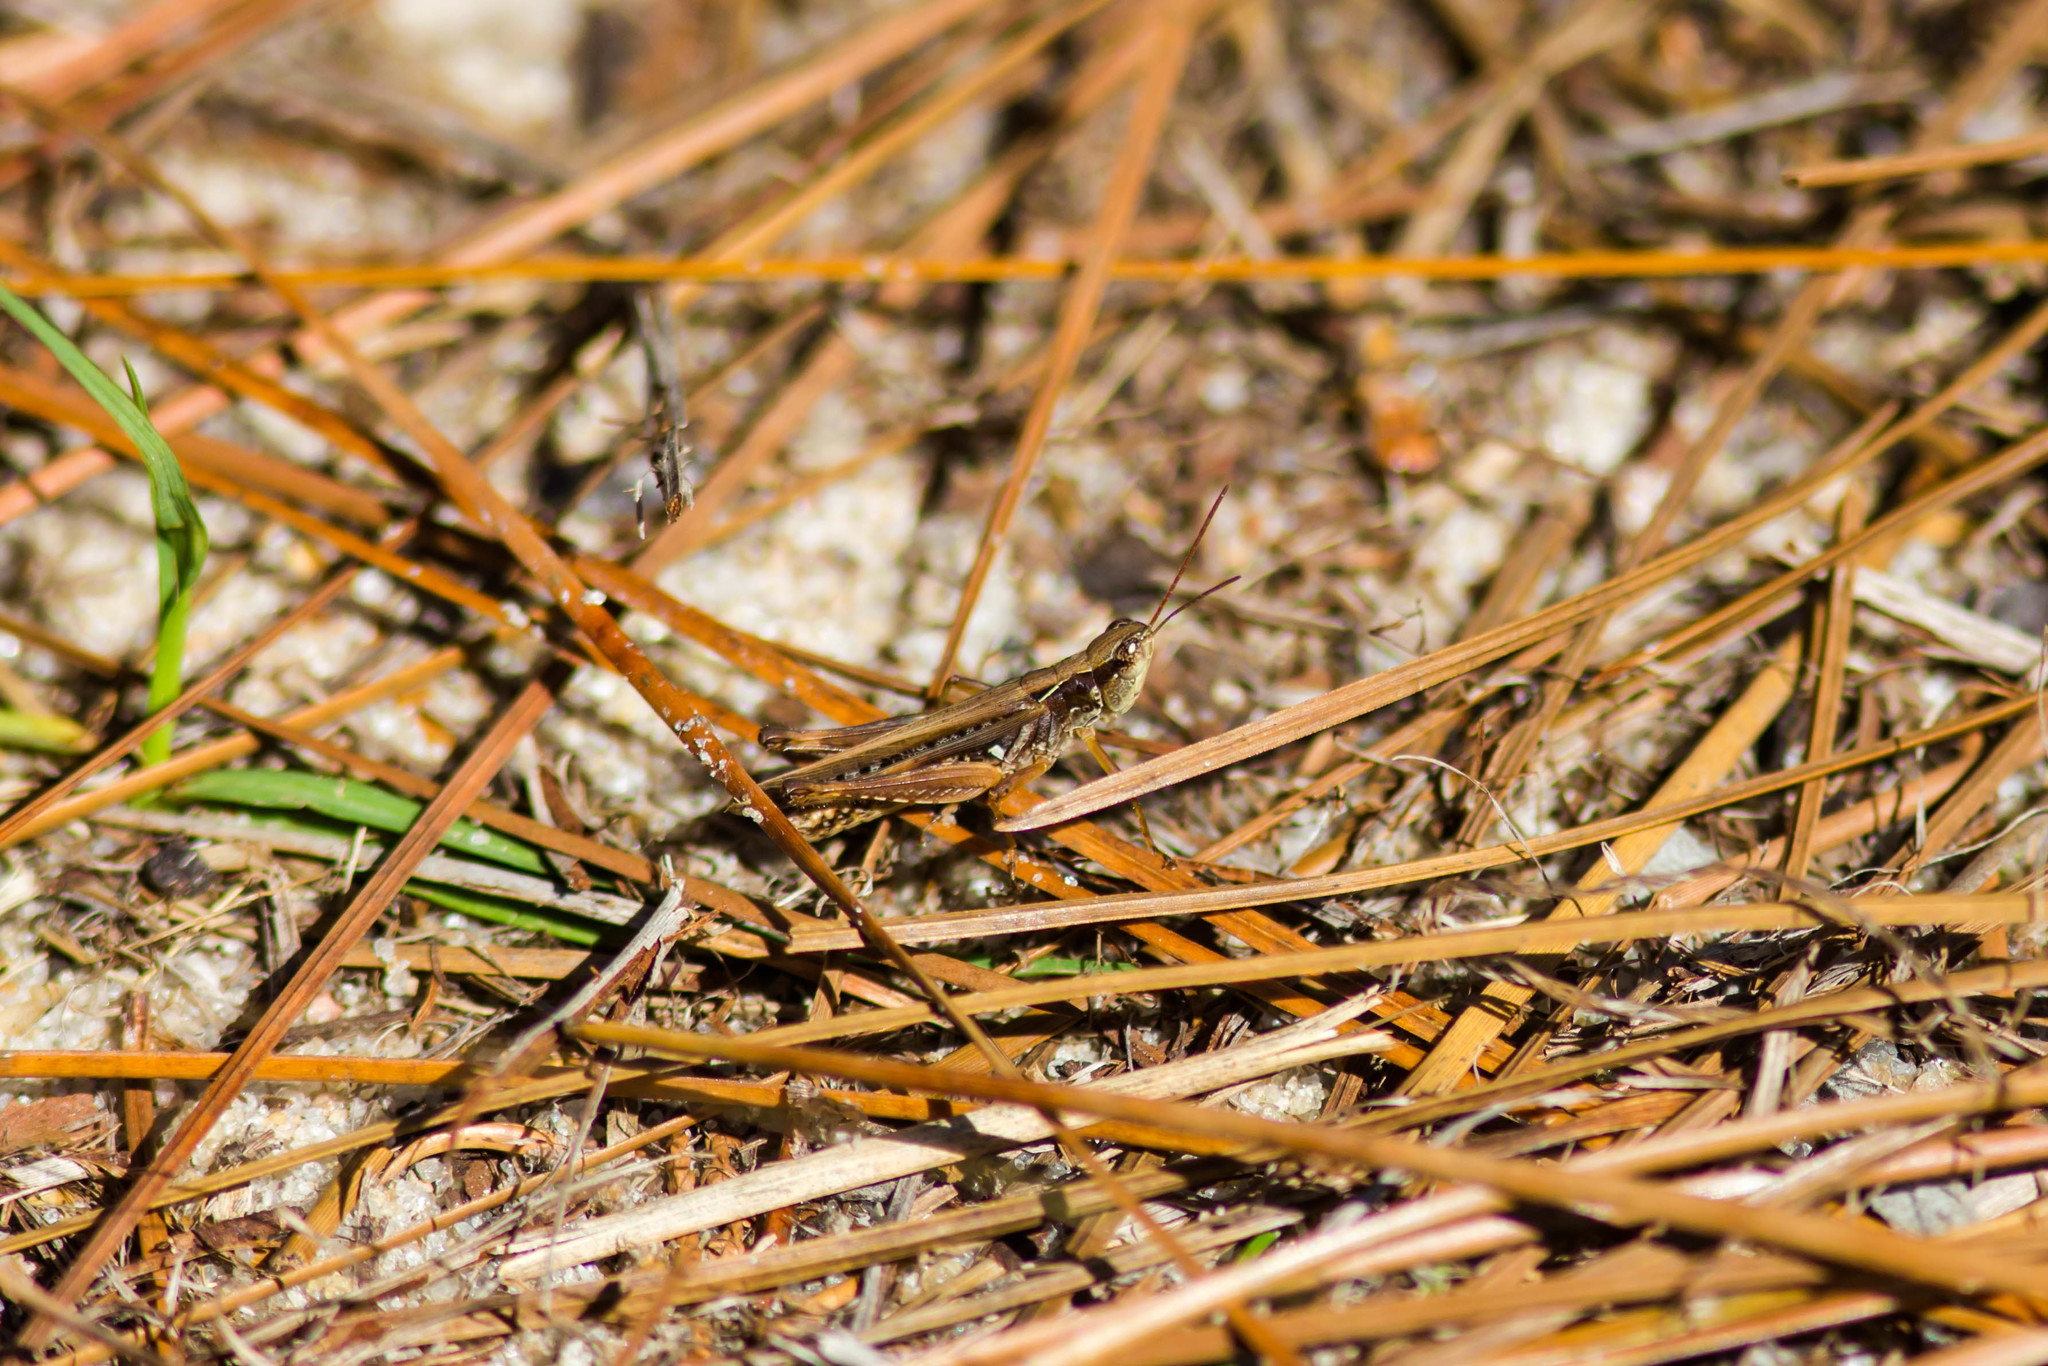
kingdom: Animalia
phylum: Arthropoda
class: Insecta
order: Orthoptera
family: Acrididae
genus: Orphulella
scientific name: Orphulella pelidna
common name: Spotted-wing grasshopper
